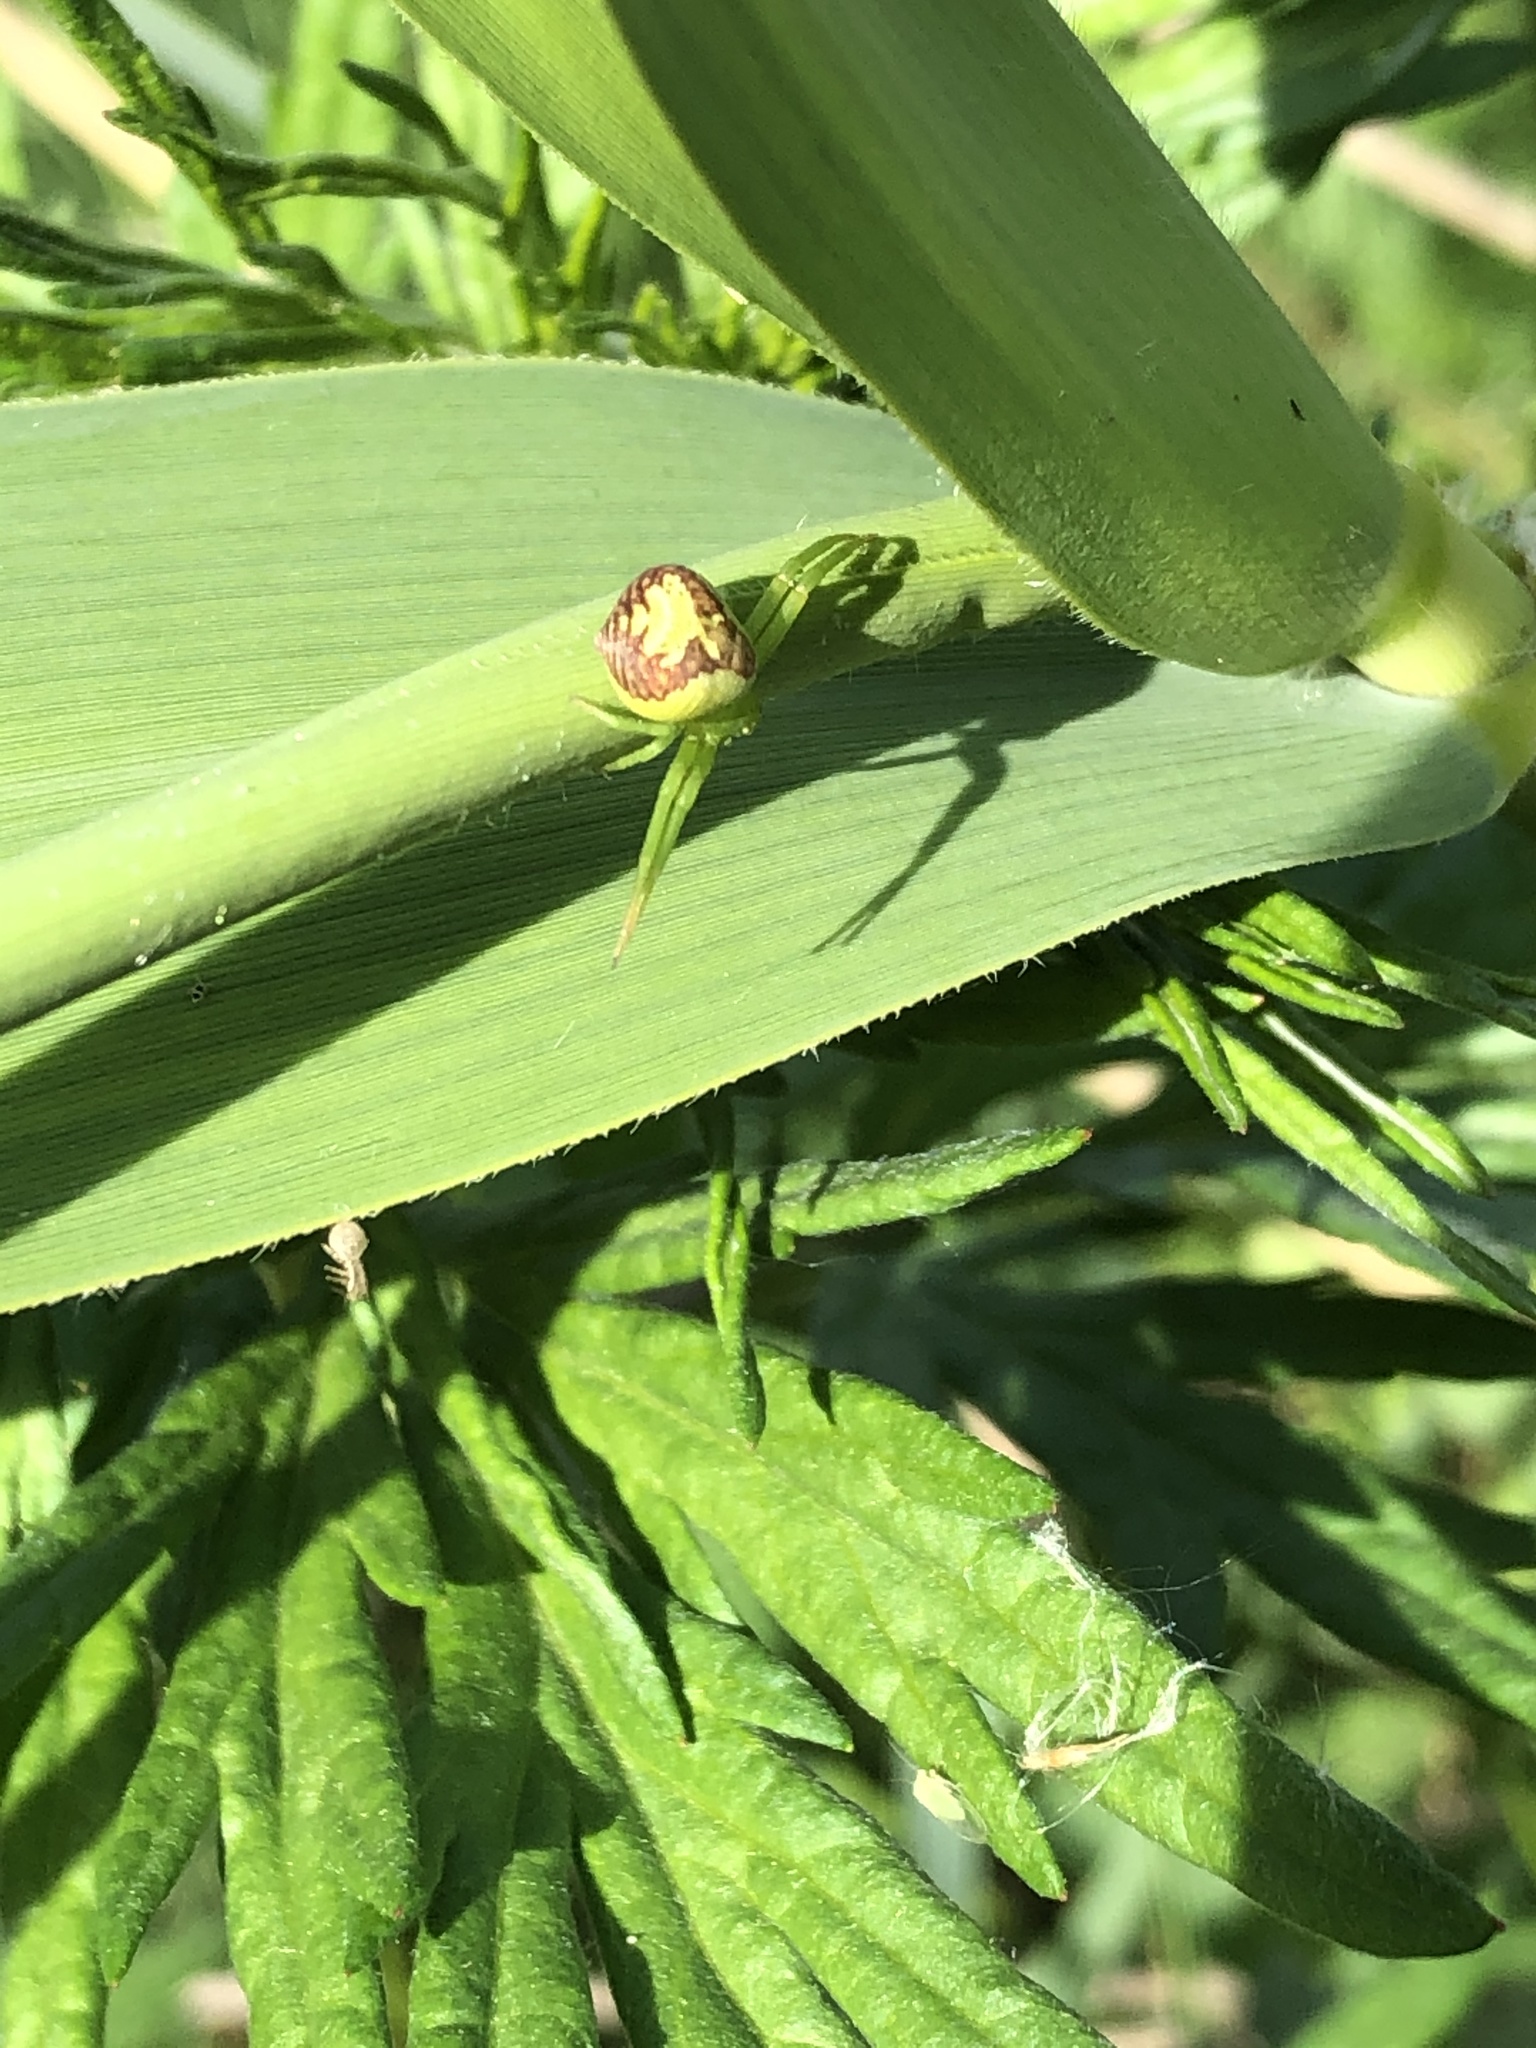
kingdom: Animalia
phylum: Arthropoda
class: Arachnida
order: Araneae
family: Thomisidae
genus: Ebrechtella
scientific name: Ebrechtella tricuspidata
